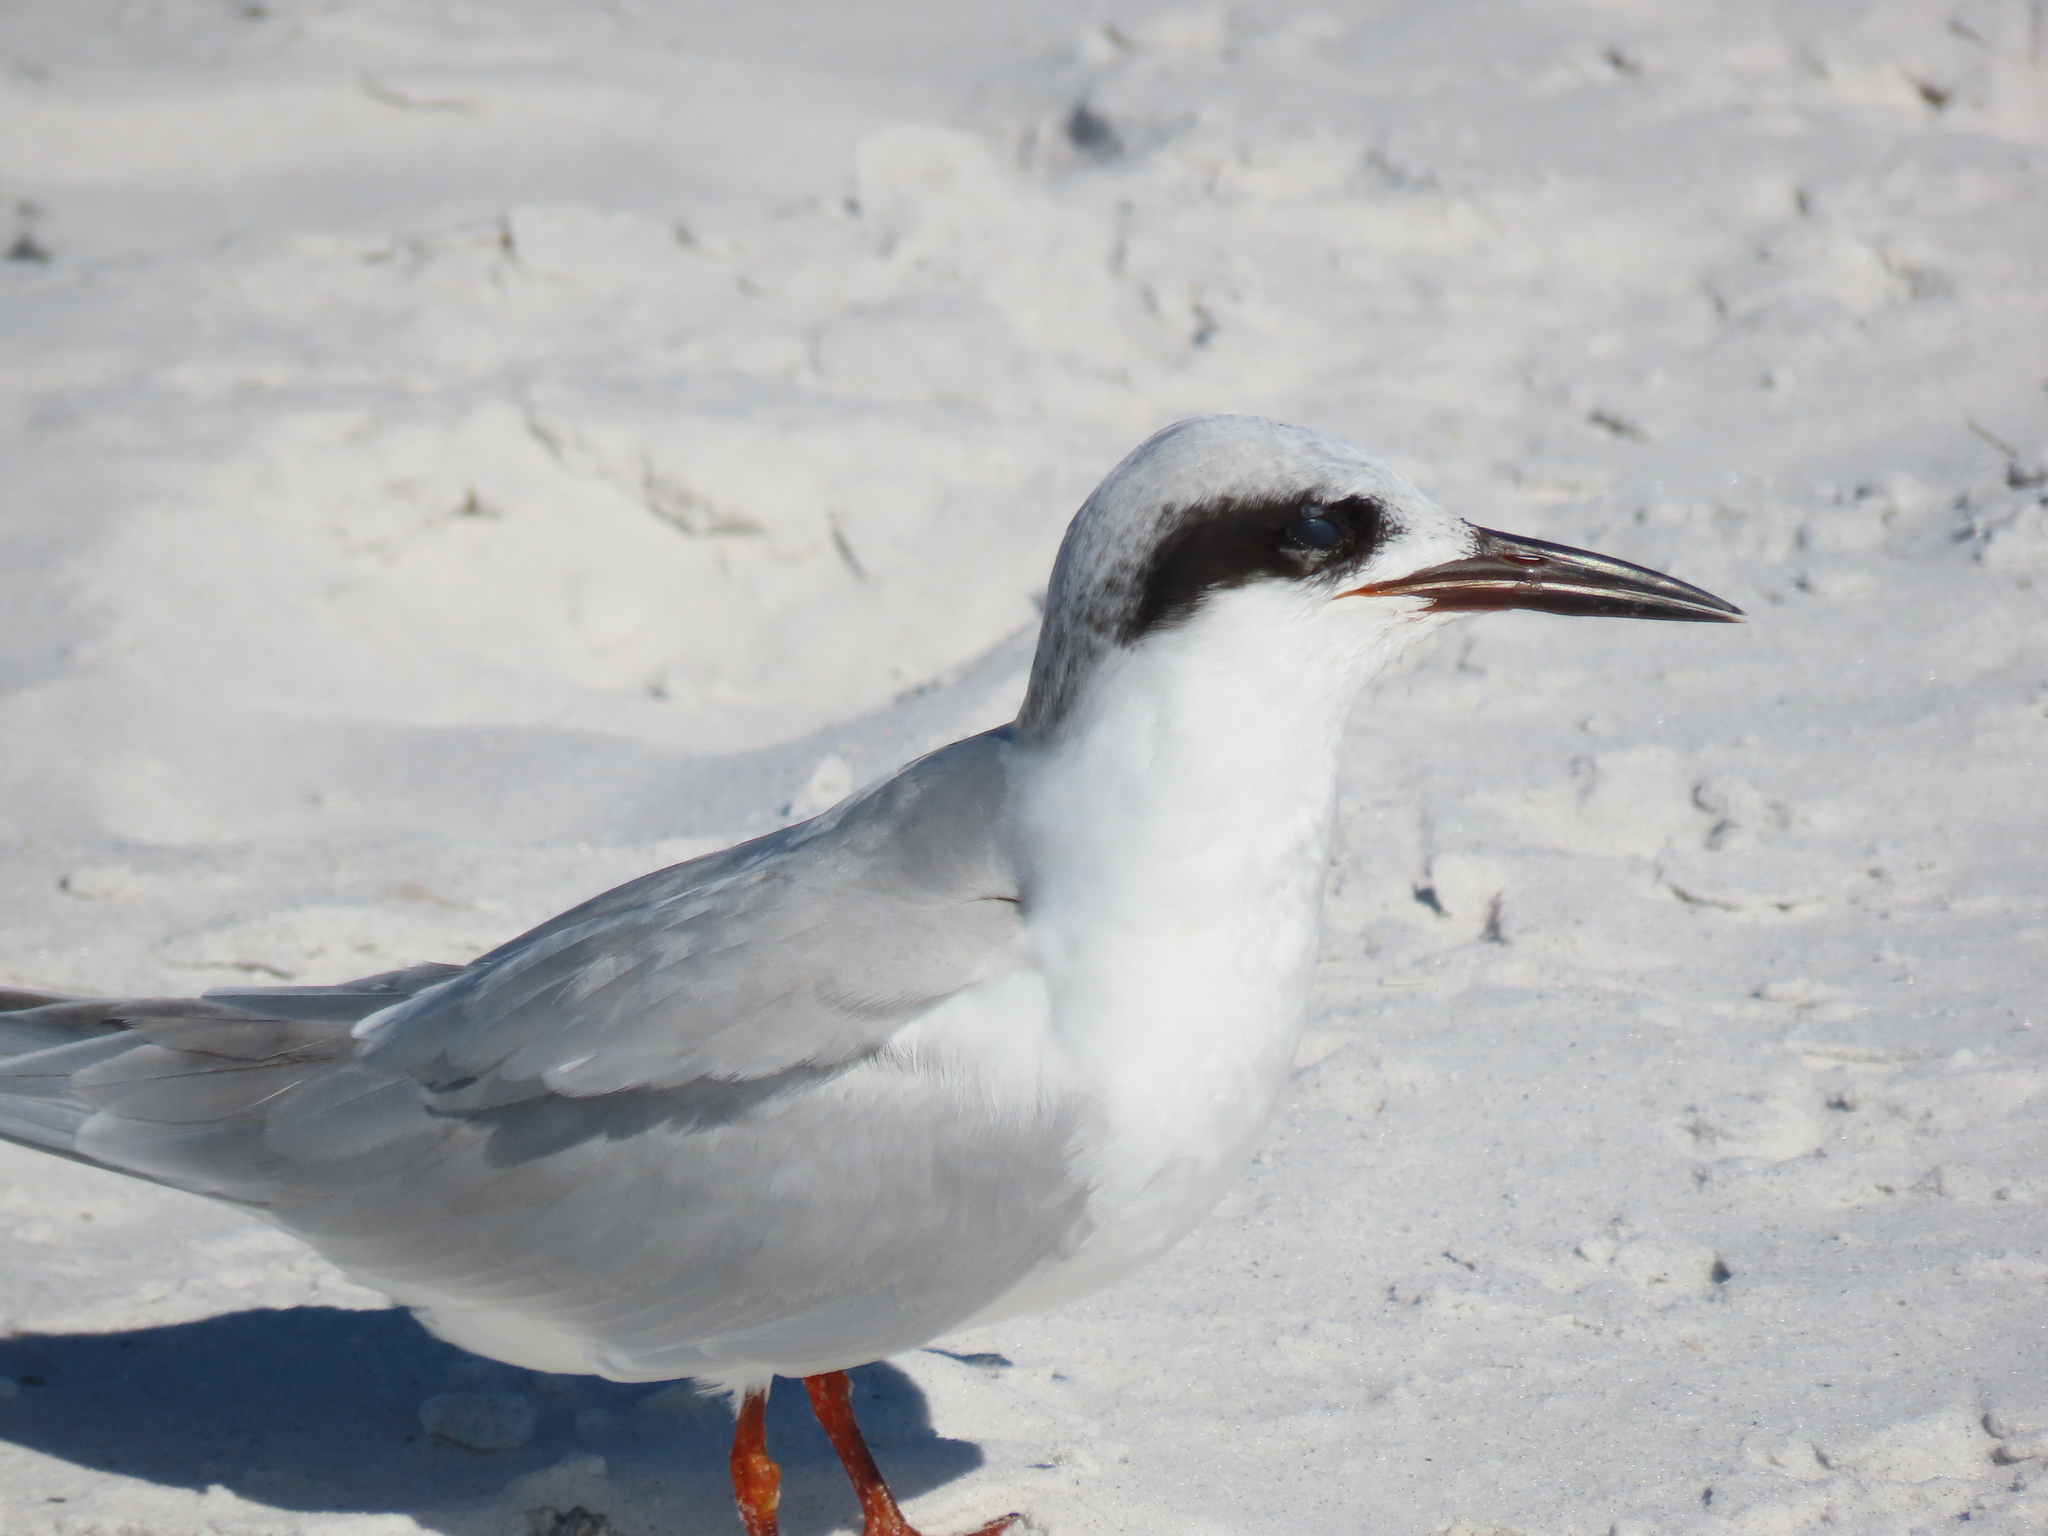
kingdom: Animalia
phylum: Chordata
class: Aves
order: Charadriiformes
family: Laridae
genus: Sterna
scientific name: Sterna forsteri
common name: Forster's tern
